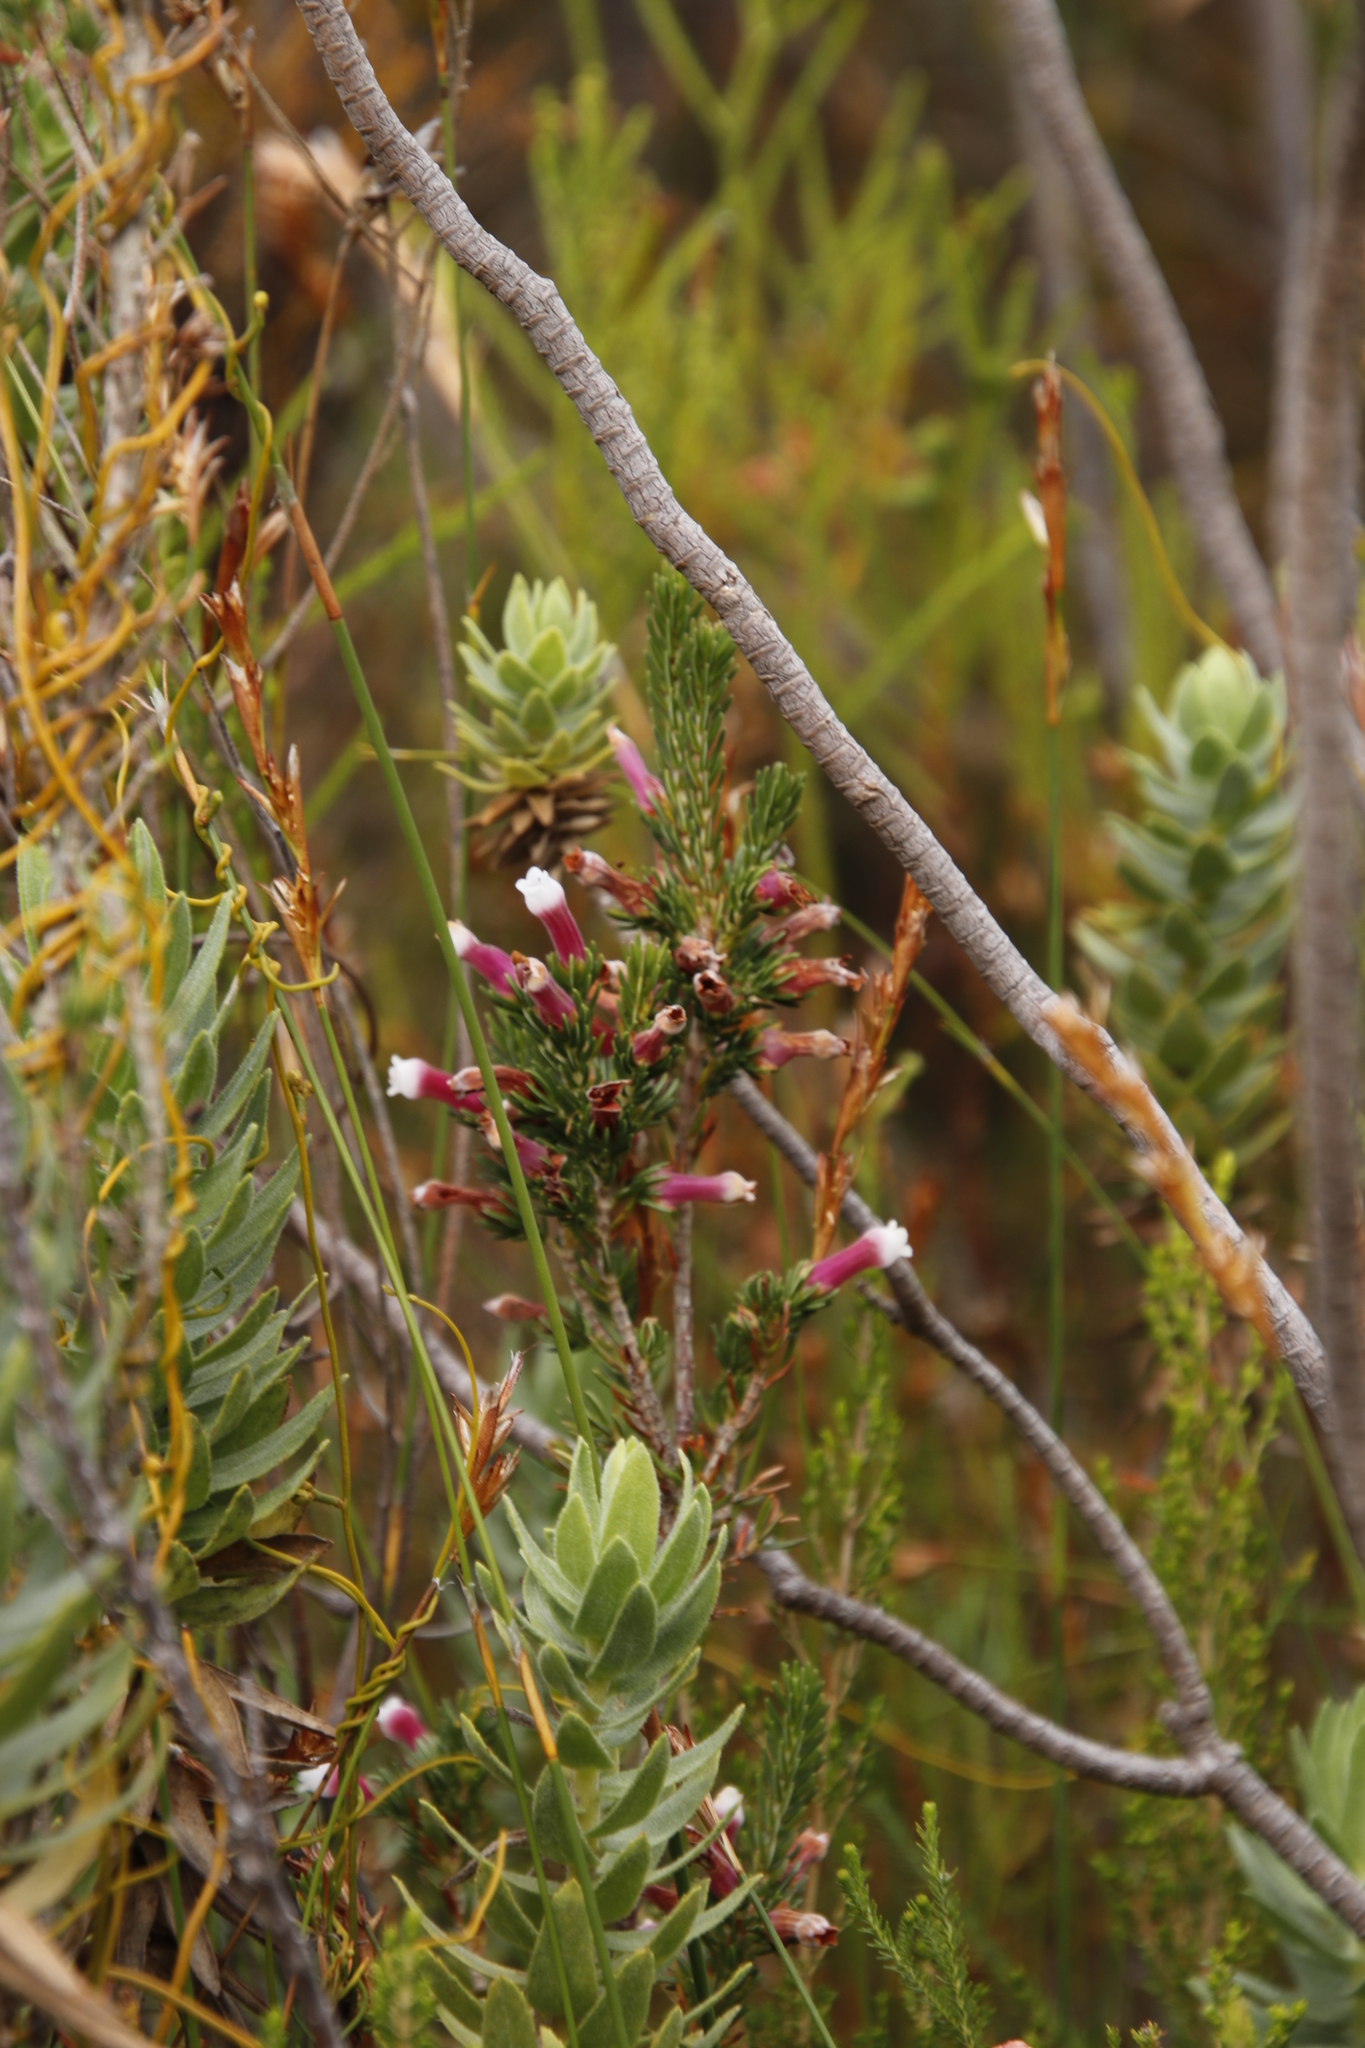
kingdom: Plantae
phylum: Tracheophyta
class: Magnoliopsida
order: Ericales
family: Ericaceae
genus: Erica
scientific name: Erica leucotrachela
